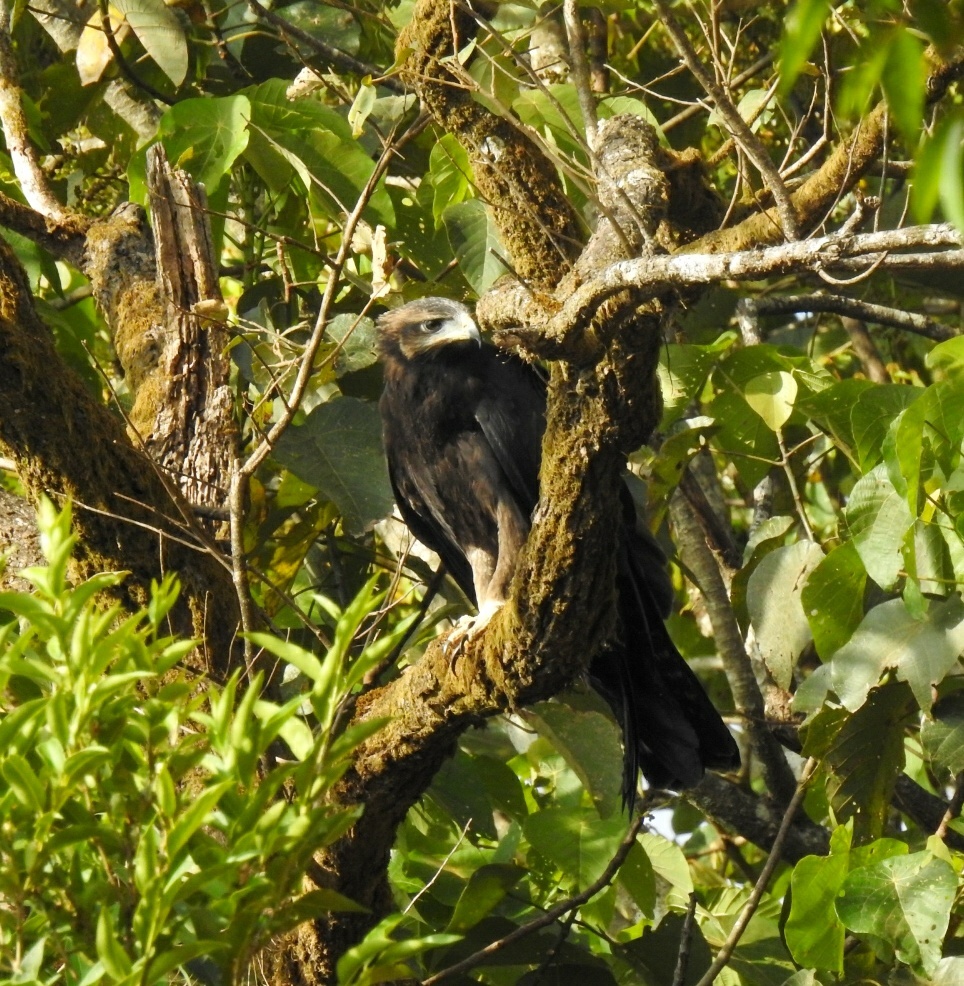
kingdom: Animalia
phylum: Chordata
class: Aves
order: Accipitriformes
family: Accipitridae
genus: Ictinaetus
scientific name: Ictinaetus malayensis
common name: Black eagle
